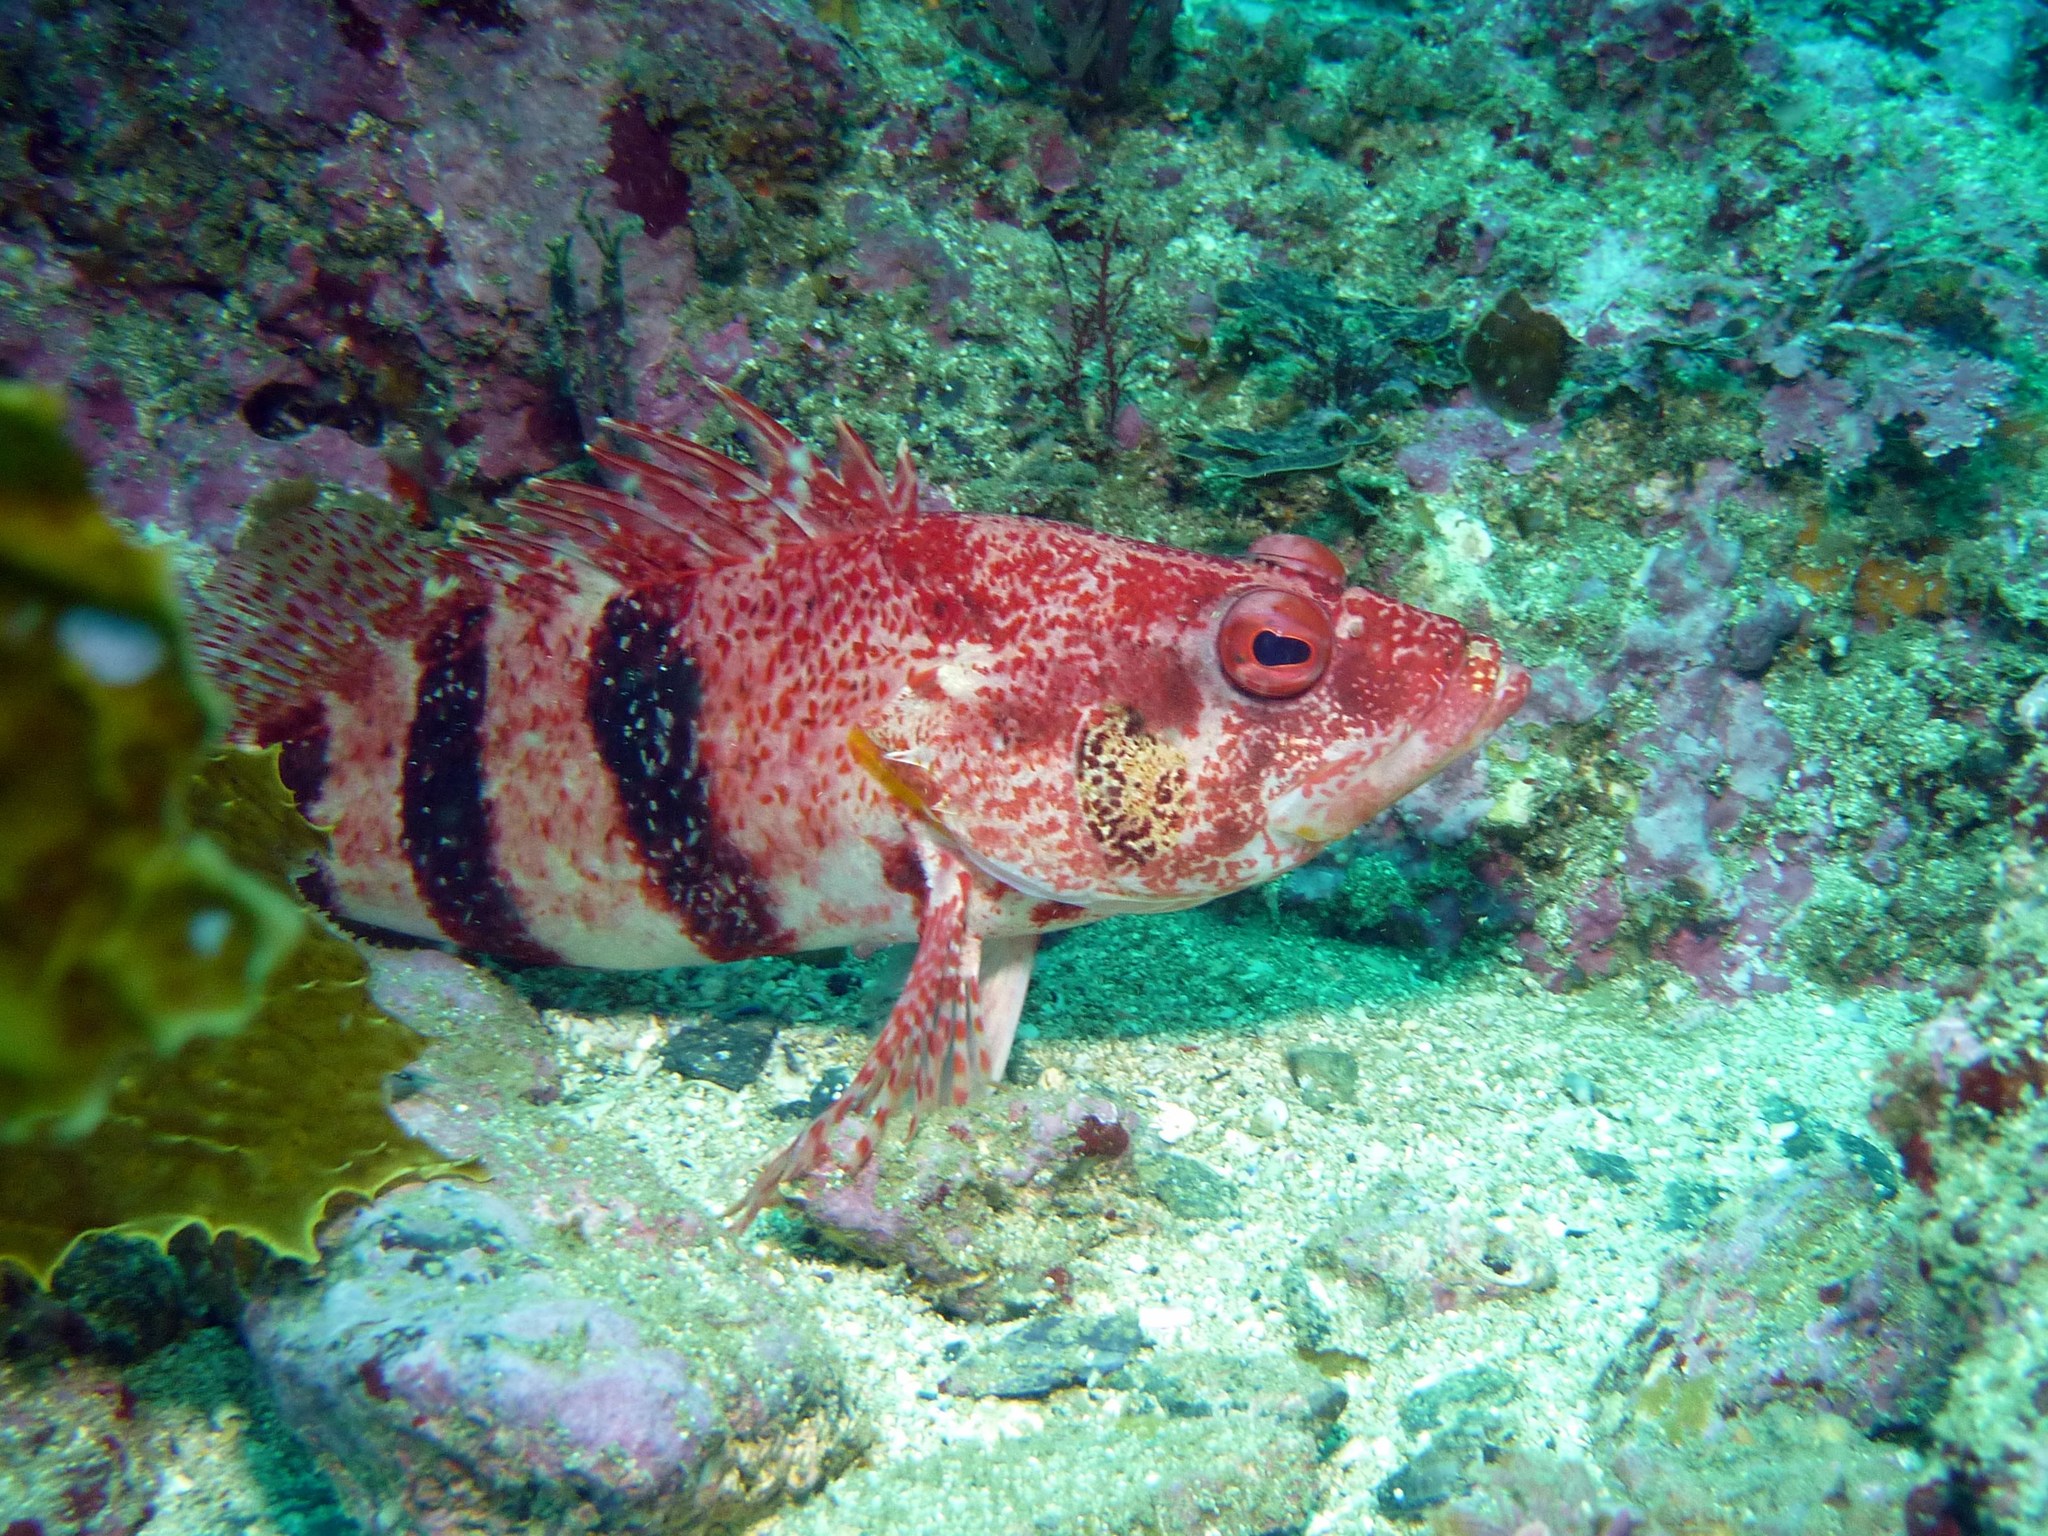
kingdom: Animalia
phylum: Chordata
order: Perciformes
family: Serranidae
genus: Hypoplectrodes
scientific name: Hypoplectrodes nigroruber
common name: Banded seaperch
